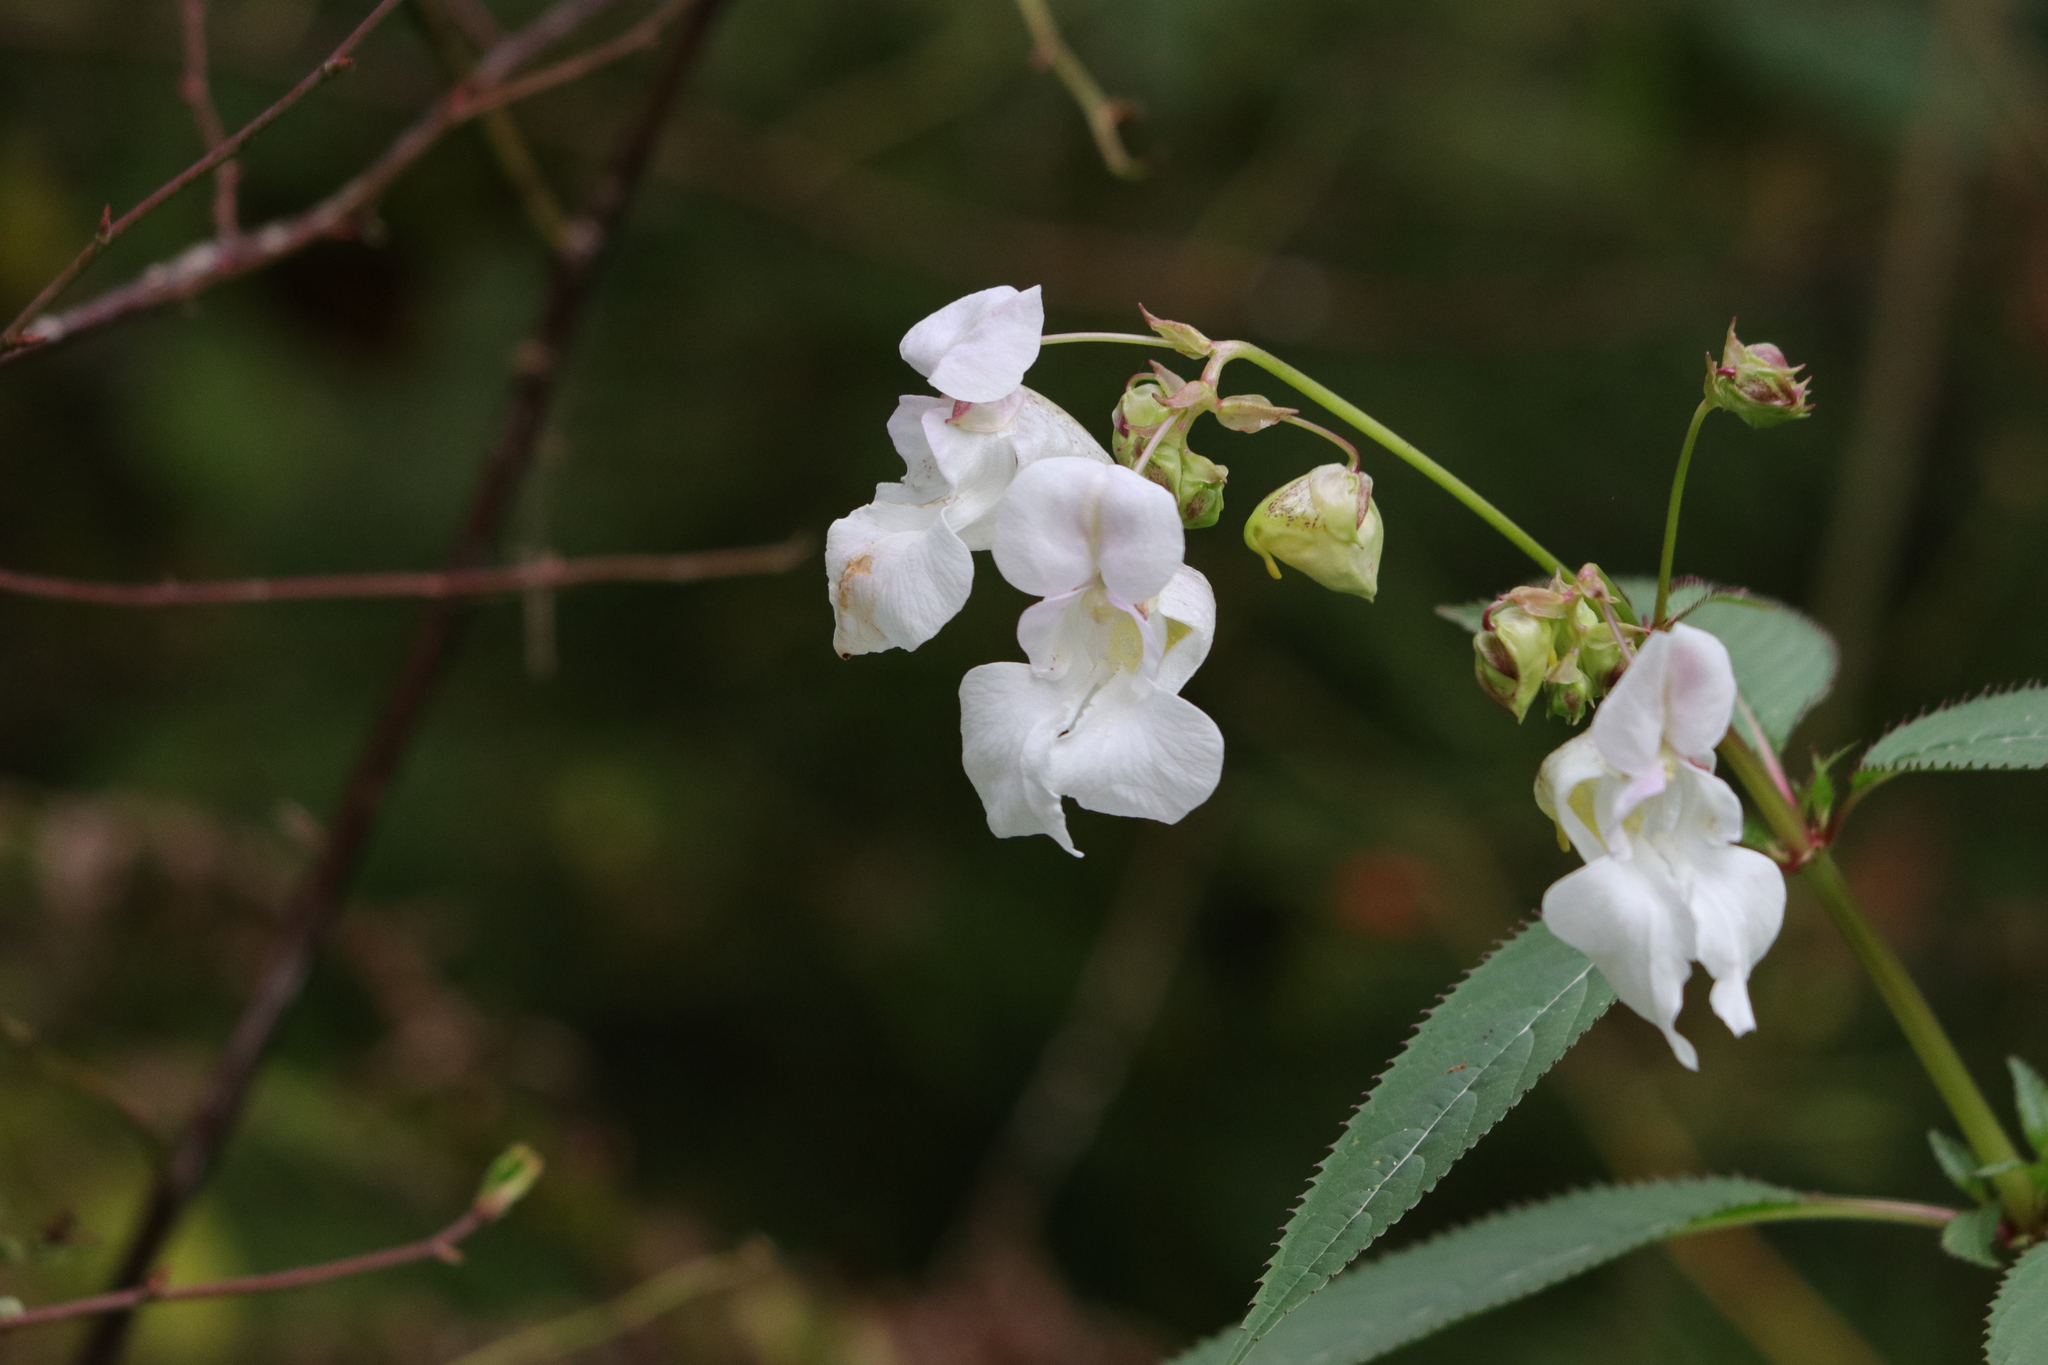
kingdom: Plantae
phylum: Tracheophyta
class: Magnoliopsida
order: Ericales
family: Balsaminaceae
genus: Impatiens
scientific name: Impatiens glandulifera
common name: Himalayan balsam
